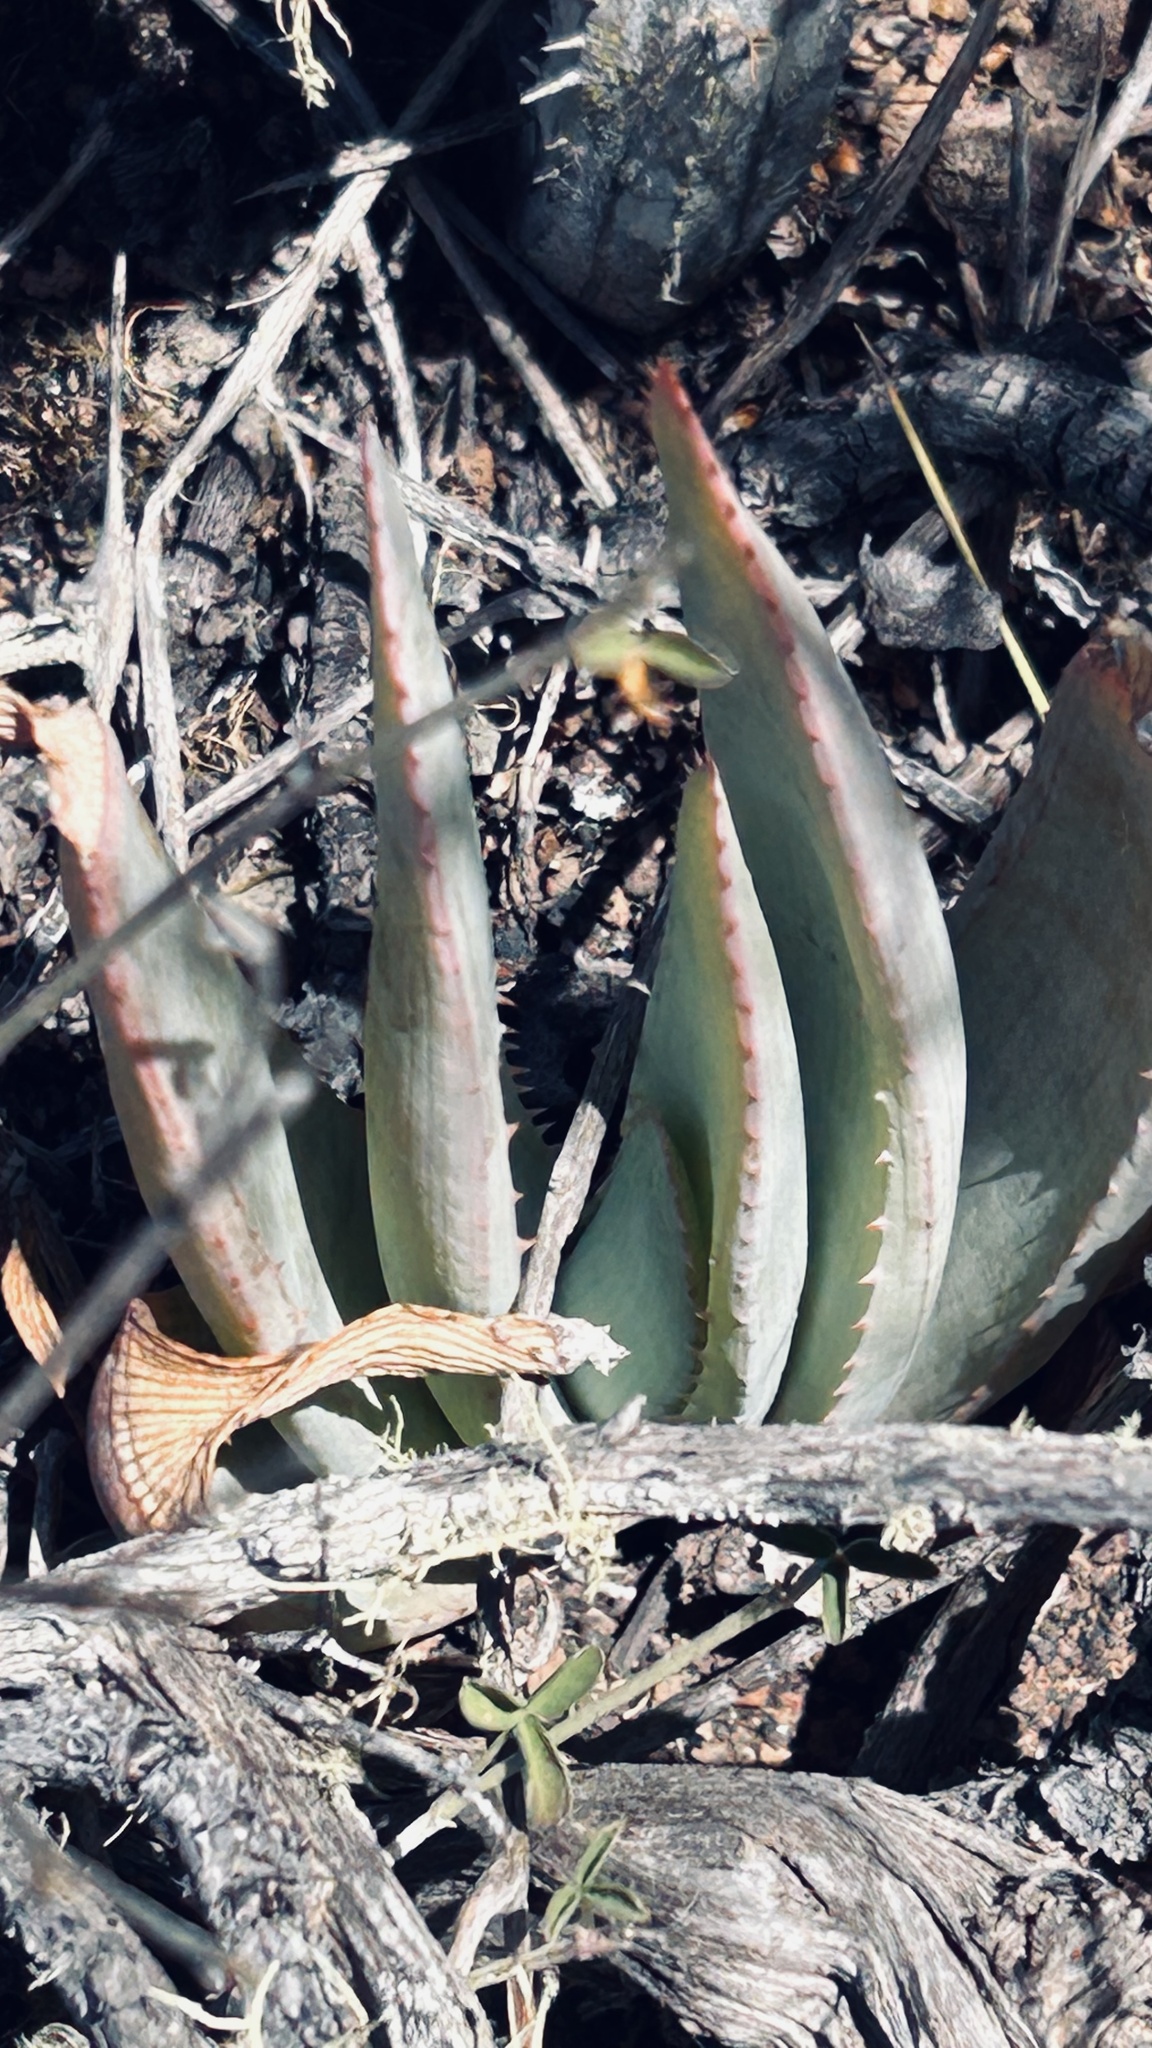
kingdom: Plantae
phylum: Tracheophyta
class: Liliopsida
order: Asparagales
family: Asphodelaceae
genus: Aloe
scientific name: Aloe glauca
